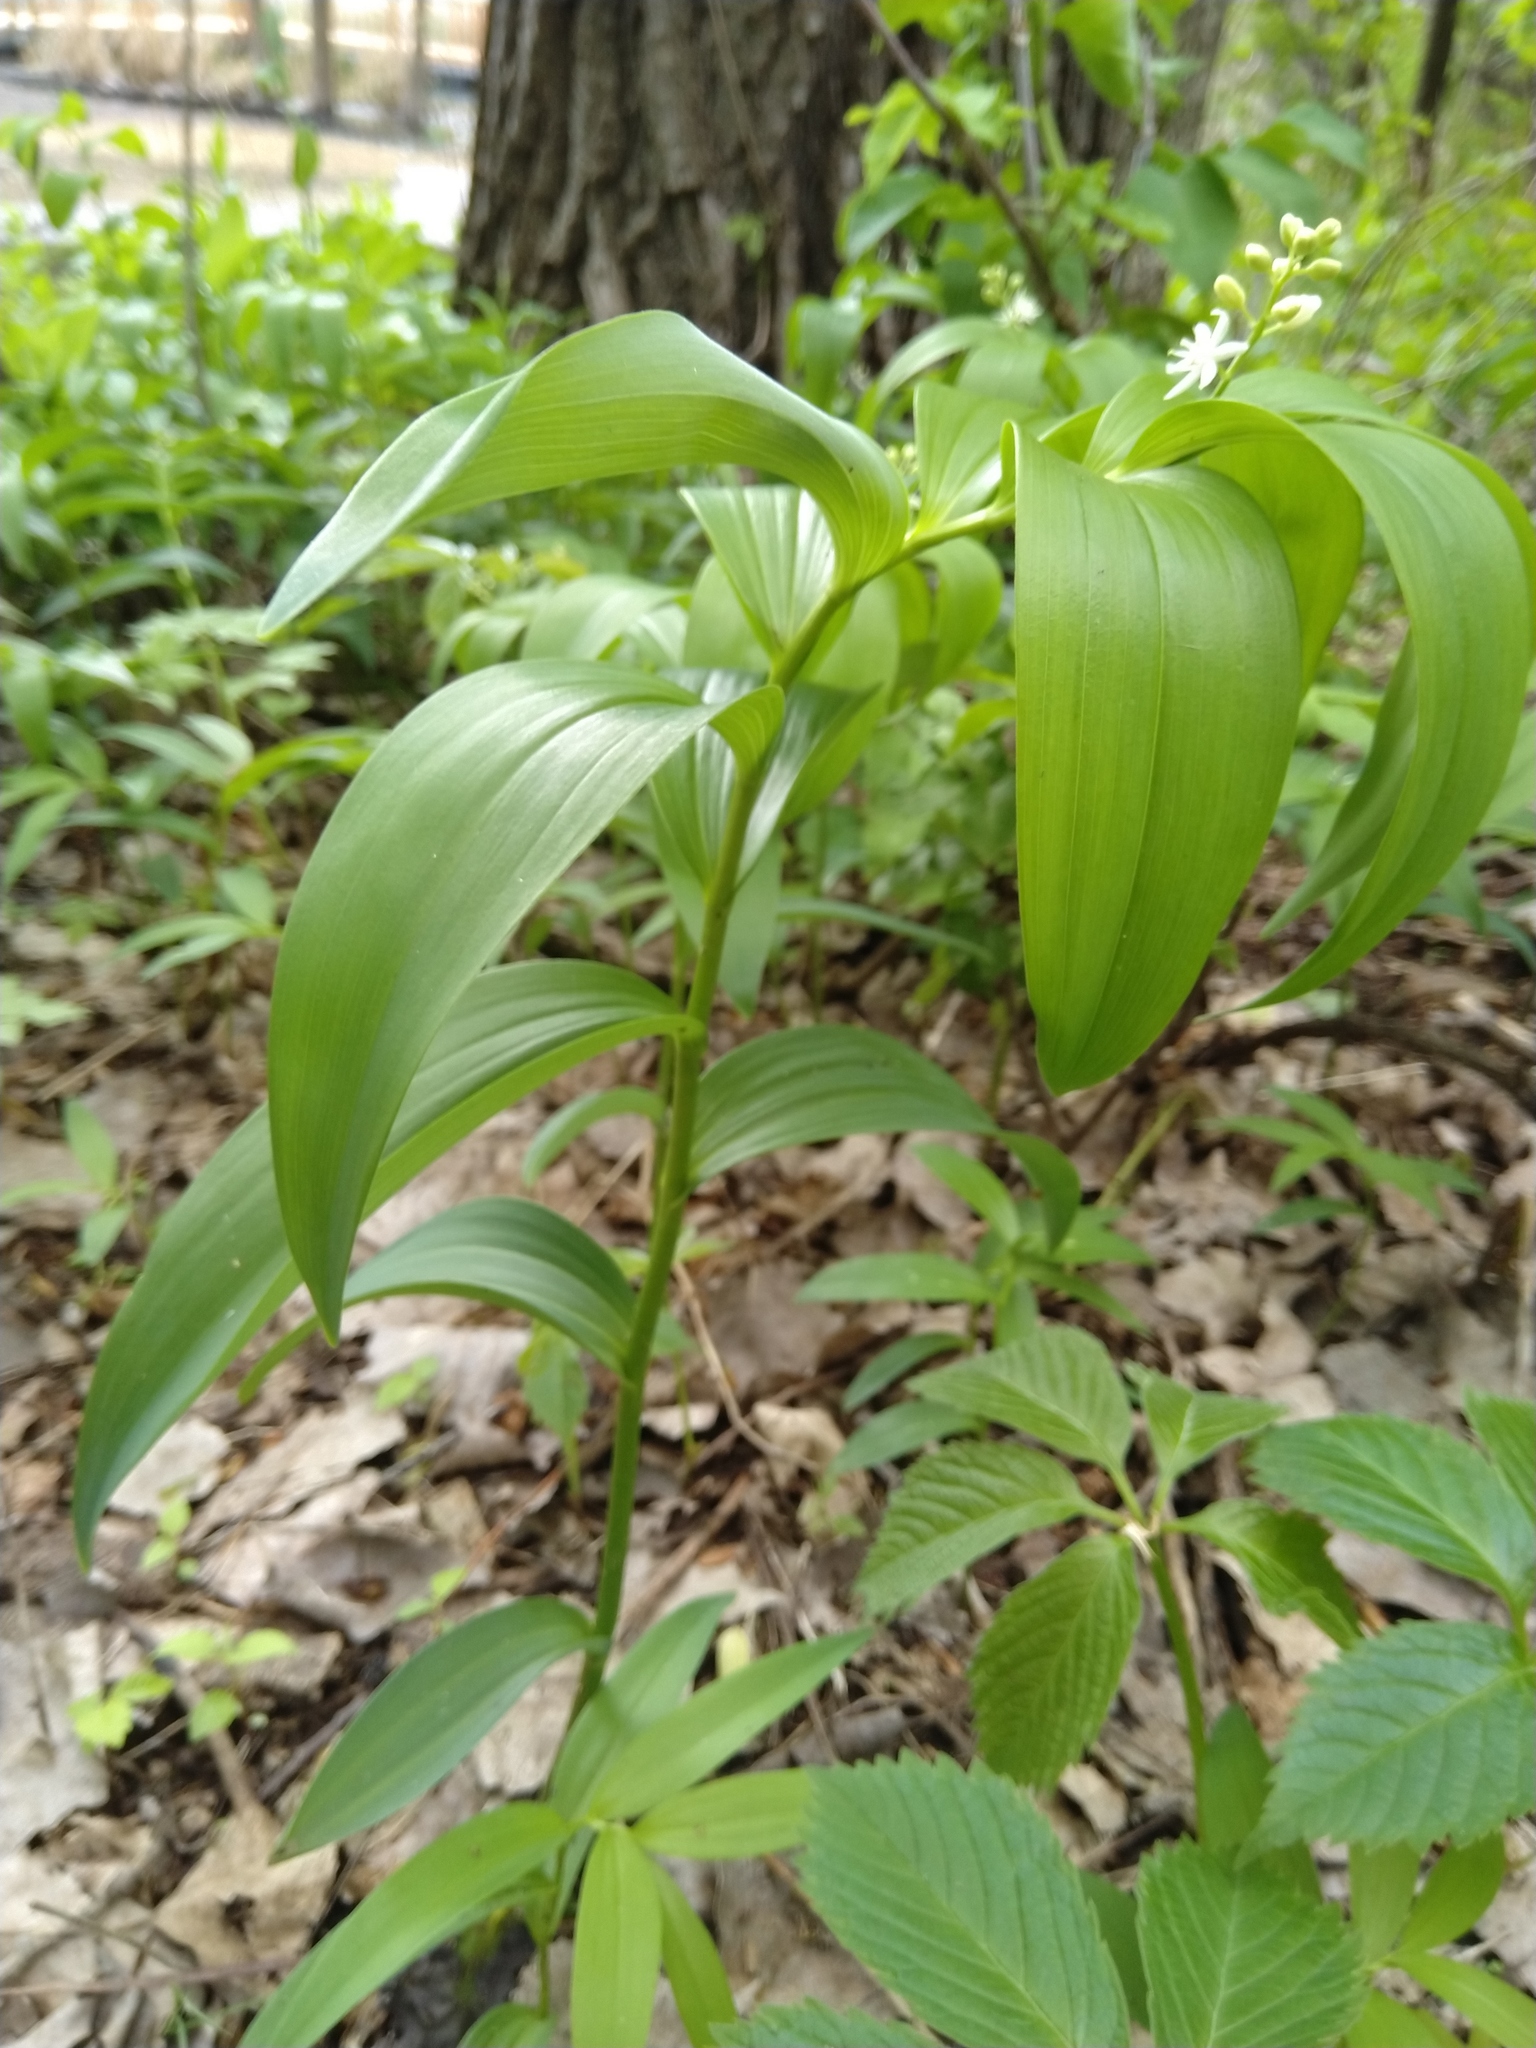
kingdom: Plantae
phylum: Tracheophyta
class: Liliopsida
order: Asparagales
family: Asparagaceae
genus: Maianthemum
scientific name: Maianthemum stellatum
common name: Little false solomon's seal
